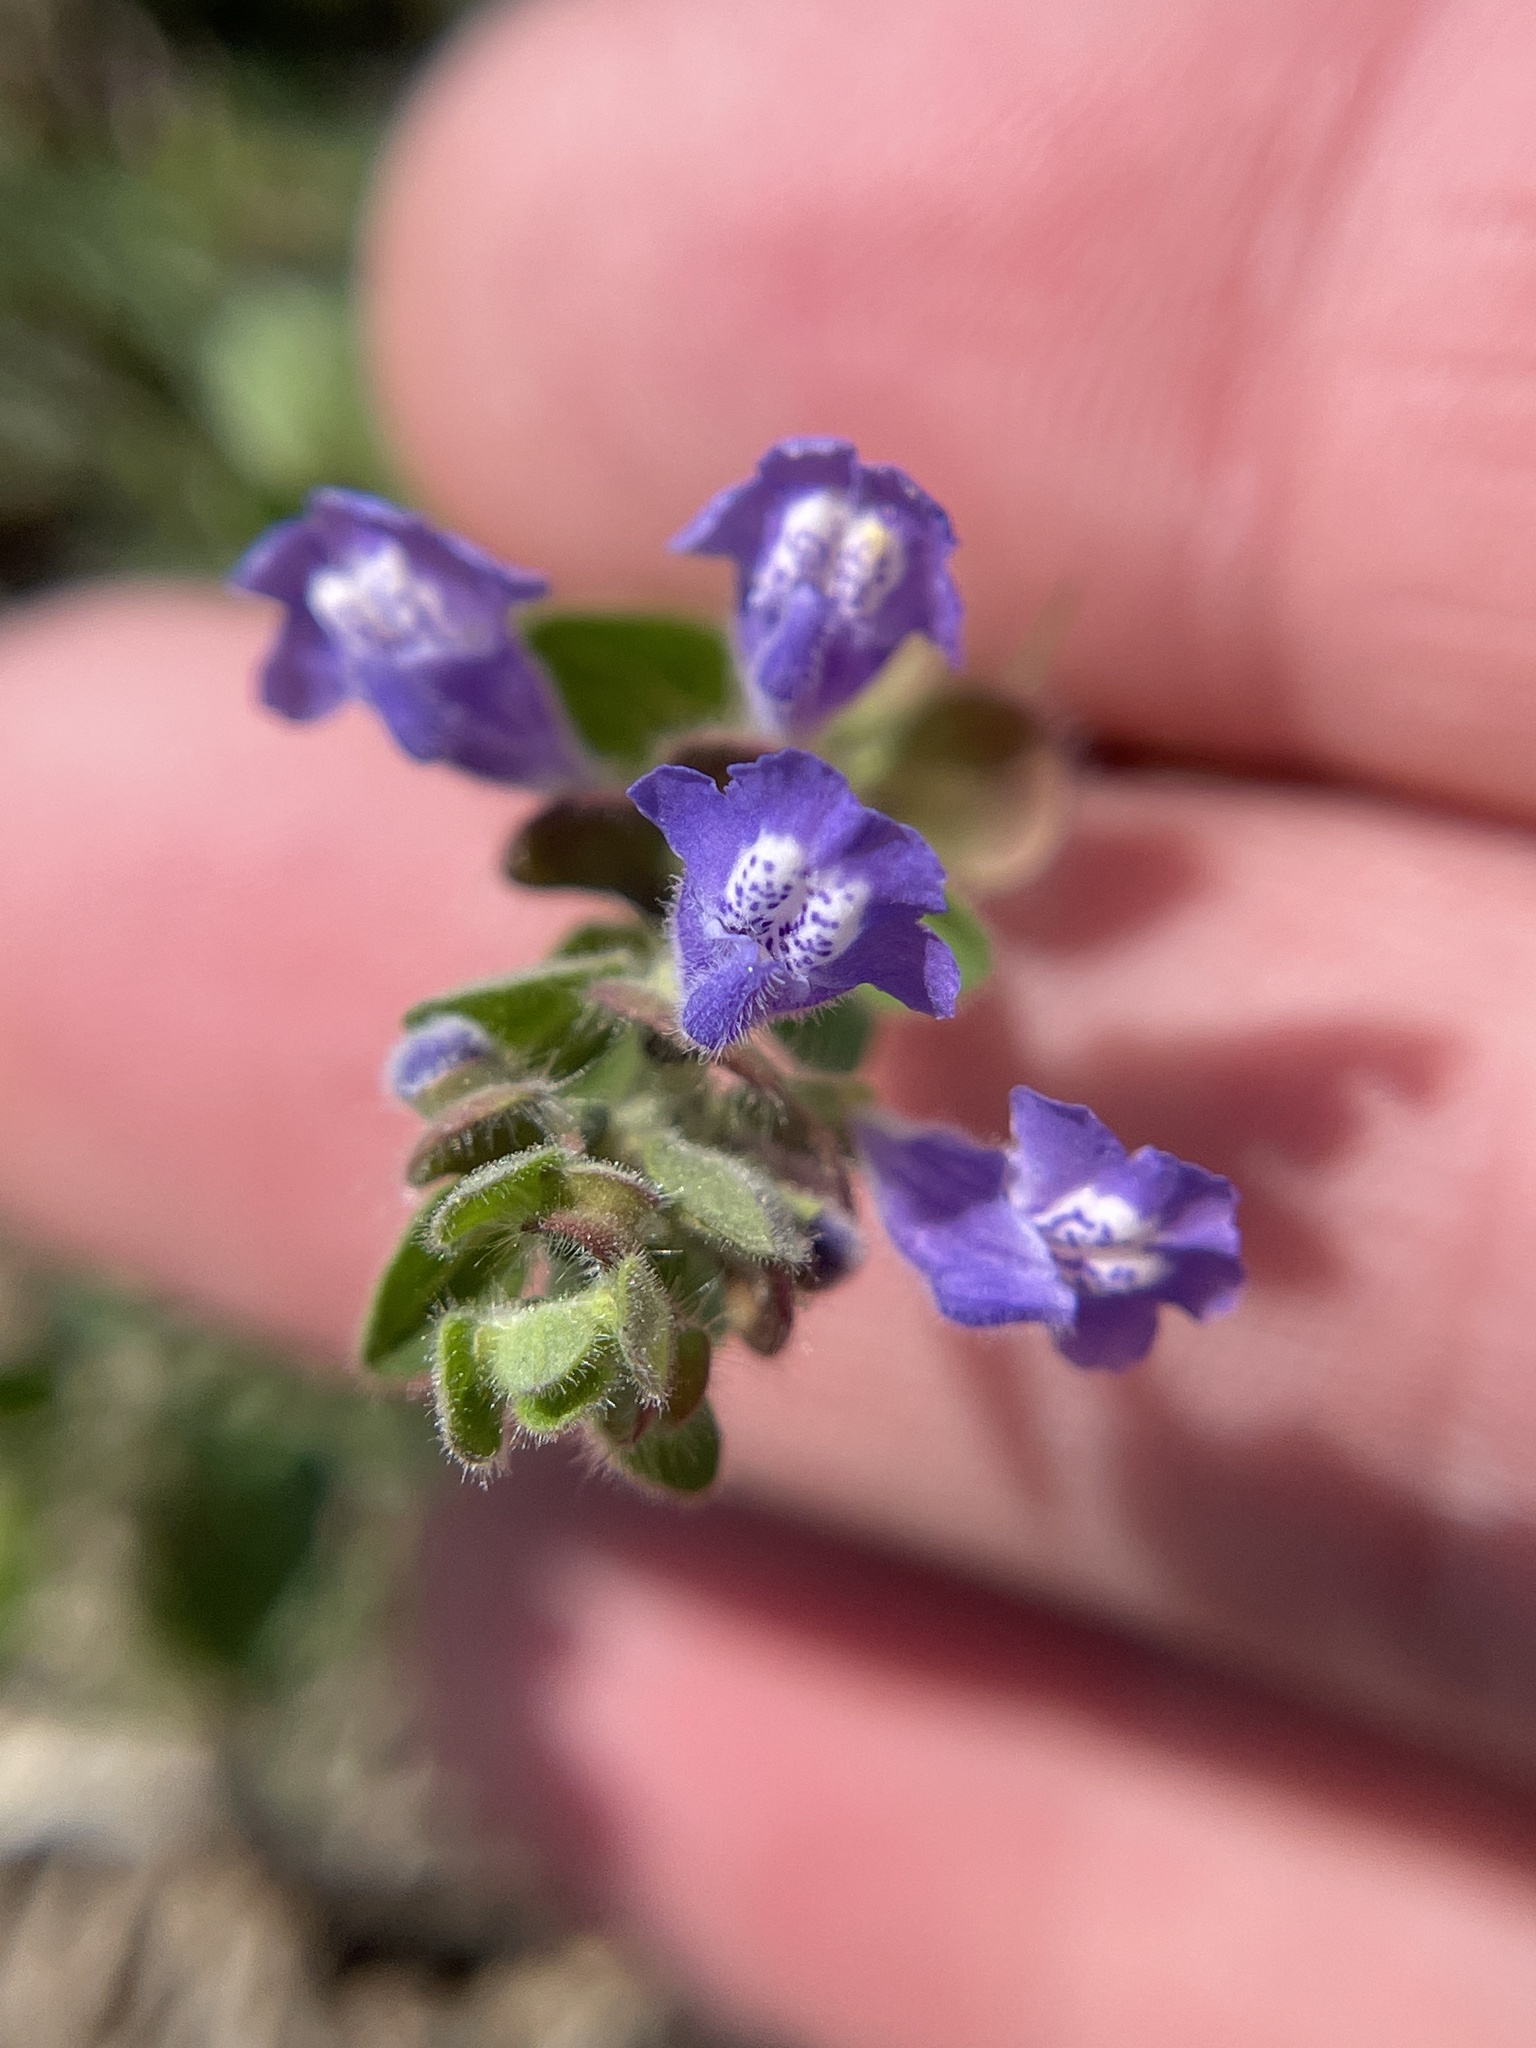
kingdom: Plantae
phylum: Tracheophyta
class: Magnoliopsida
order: Lamiales
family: Lamiaceae
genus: Scutellaria
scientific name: Scutellaria drummondii
